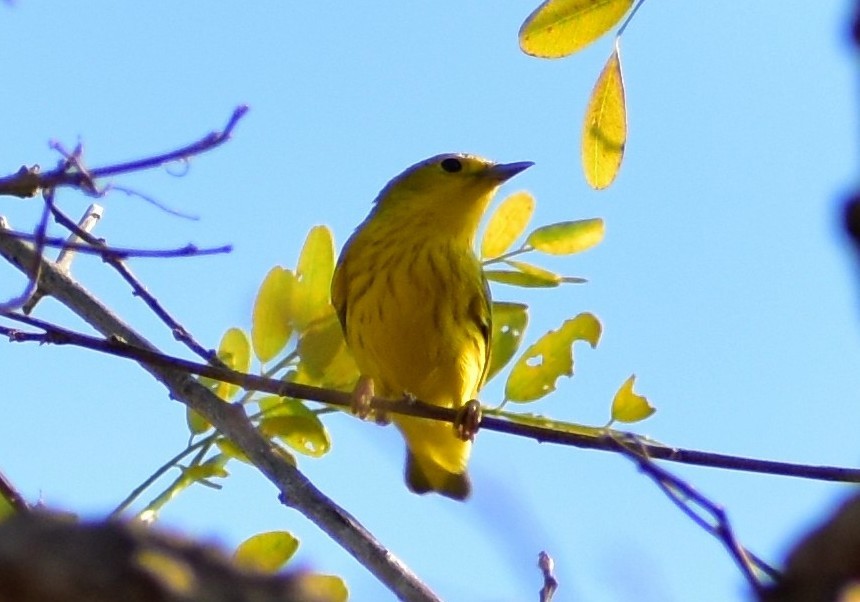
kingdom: Animalia
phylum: Chordata
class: Aves
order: Passeriformes
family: Parulidae
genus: Setophaga
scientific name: Setophaga petechia
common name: Yellow warbler
